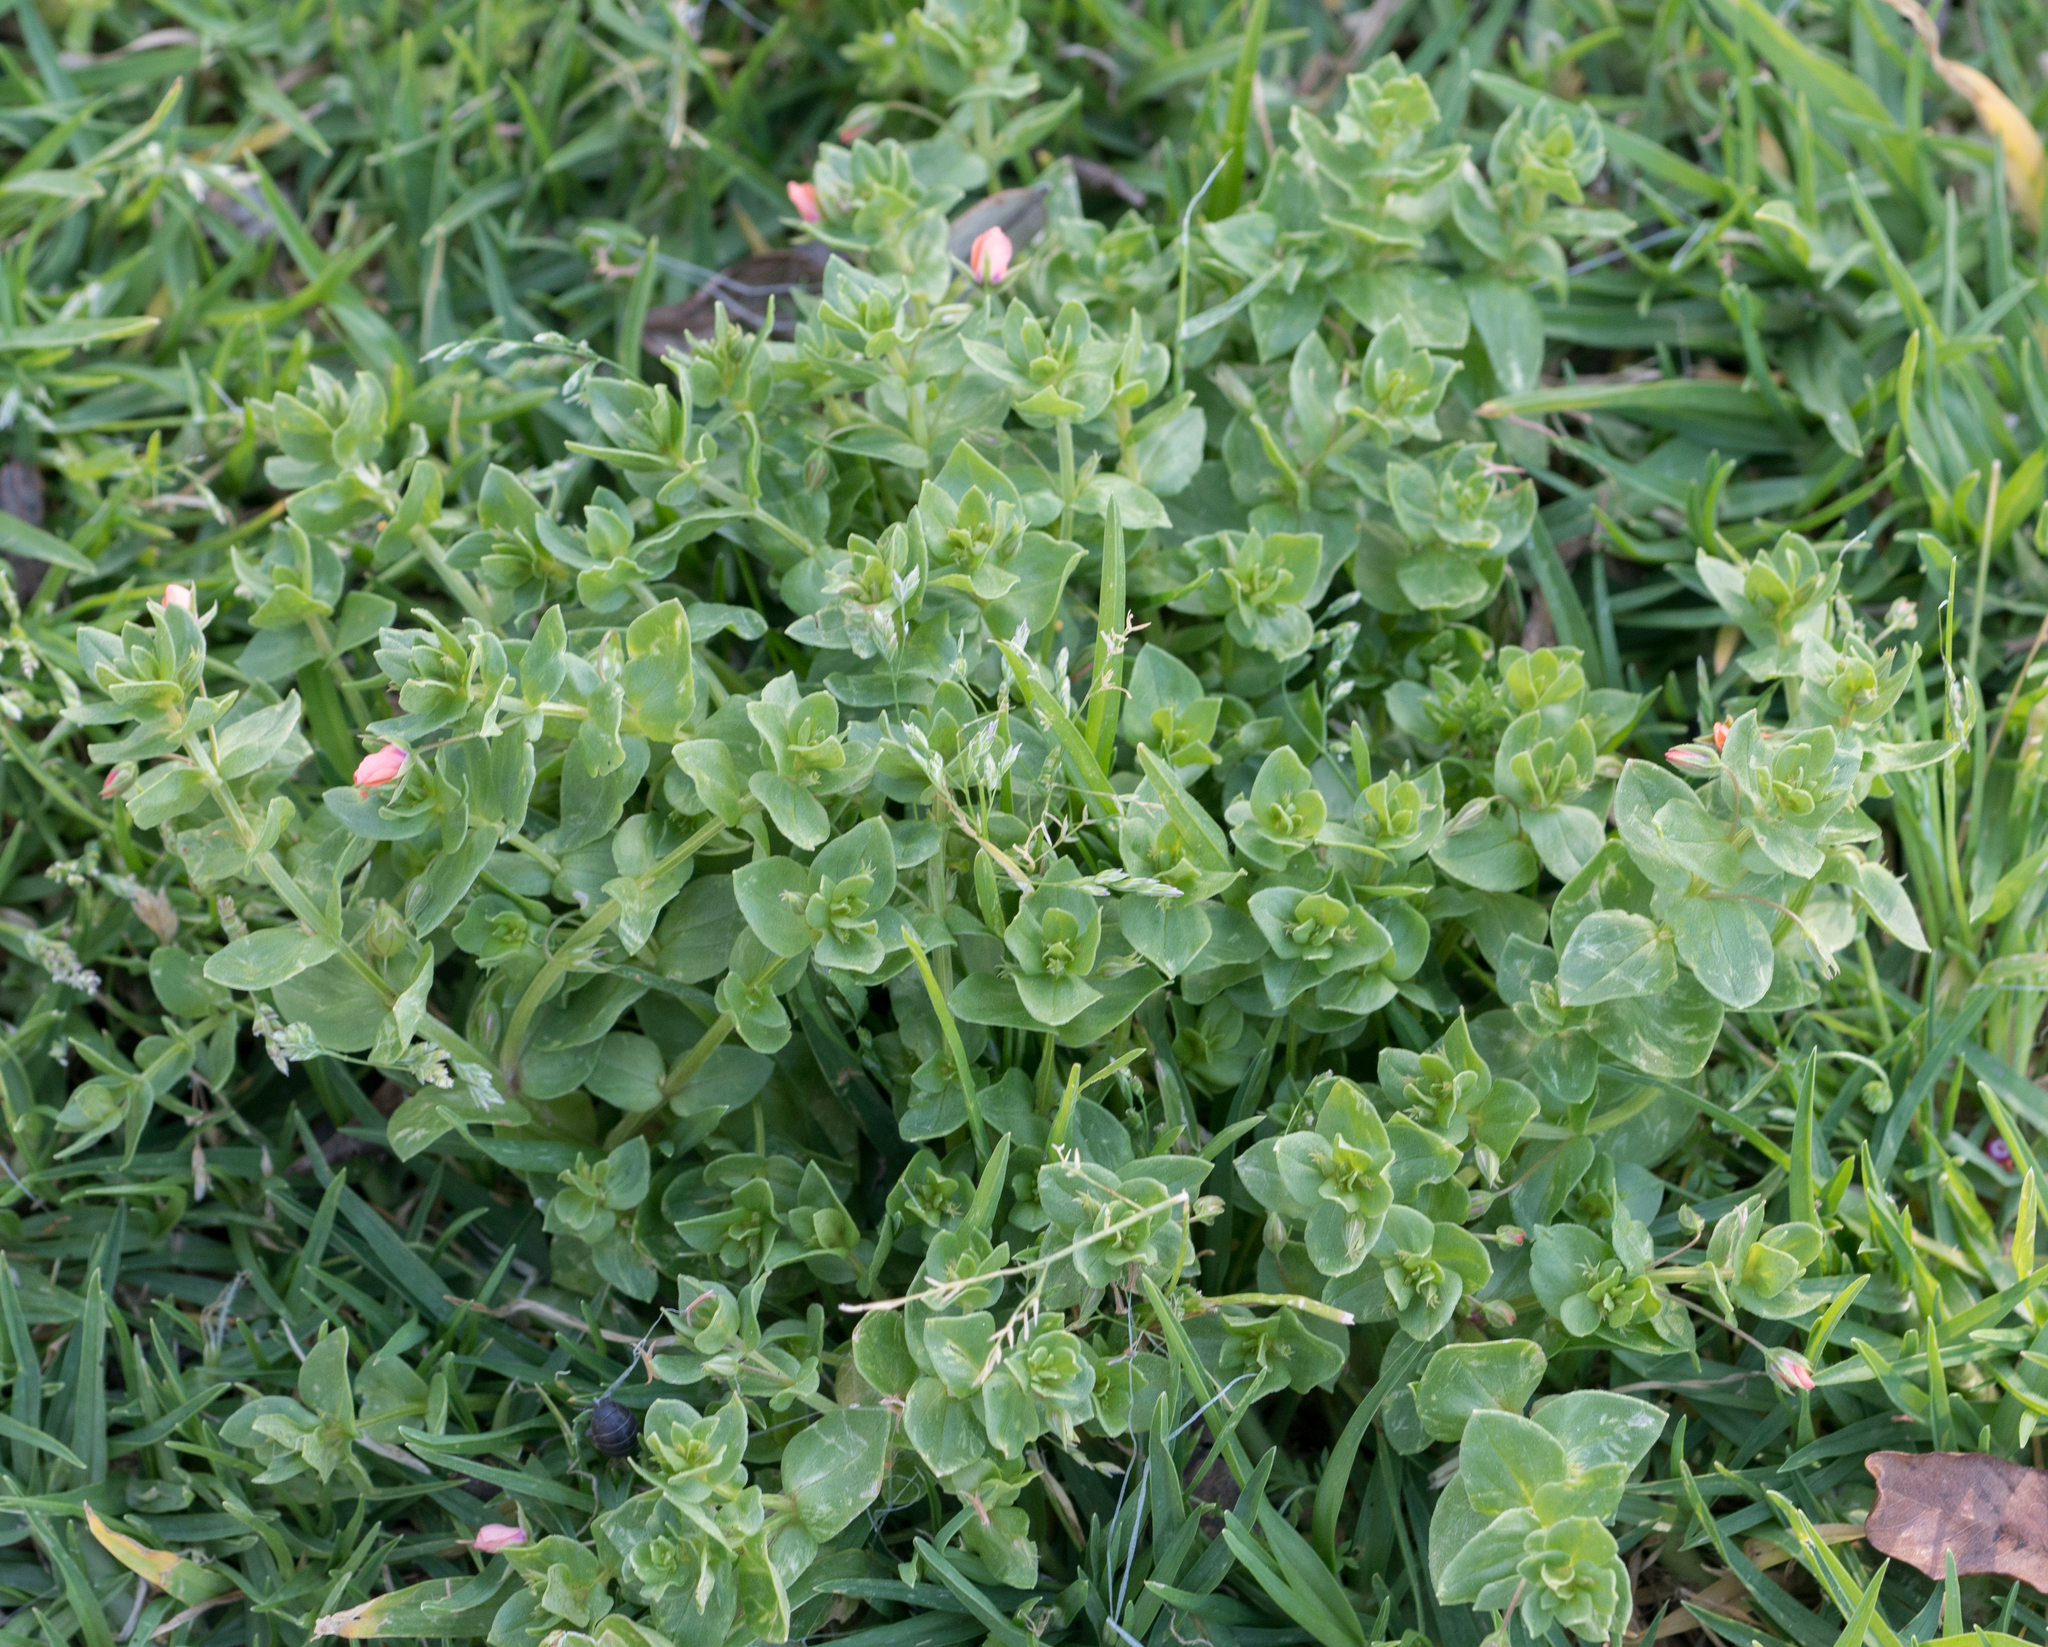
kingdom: Plantae
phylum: Tracheophyta
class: Magnoliopsida
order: Ericales
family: Primulaceae
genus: Lysimachia
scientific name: Lysimachia arvensis
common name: Scarlet pimpernel
